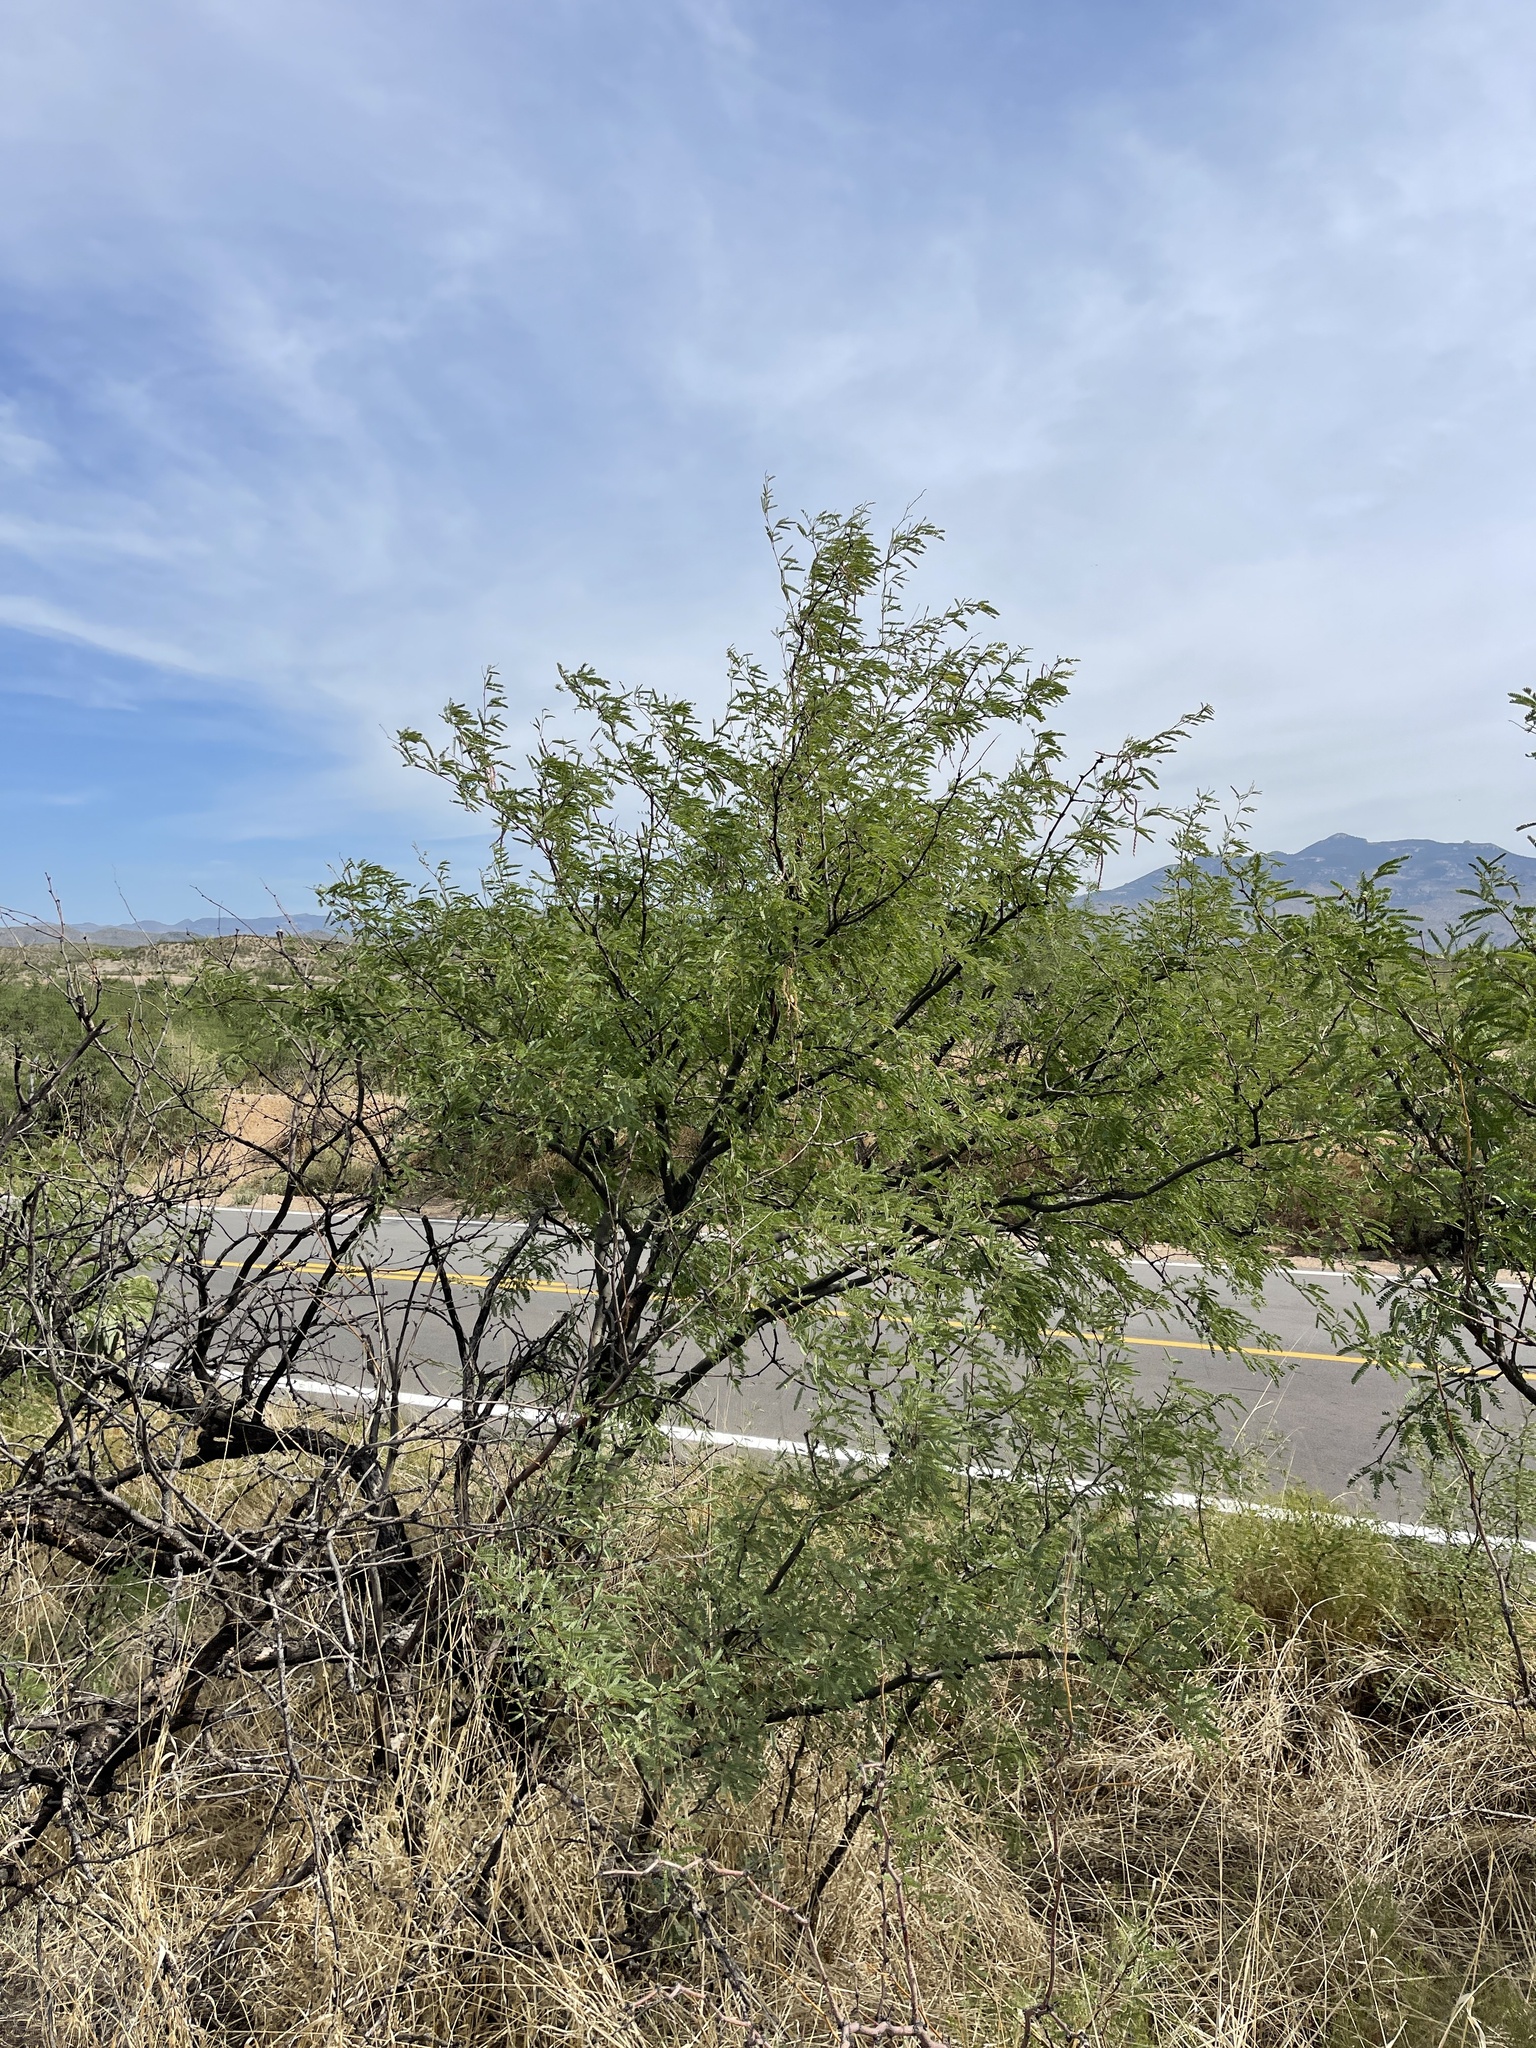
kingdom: Plantae
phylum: Tracheophyta
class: Magnoliopsida
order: Fabales
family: Fabaceae
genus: Prosopis
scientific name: Prosopis velutina
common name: Velvet mesquite
